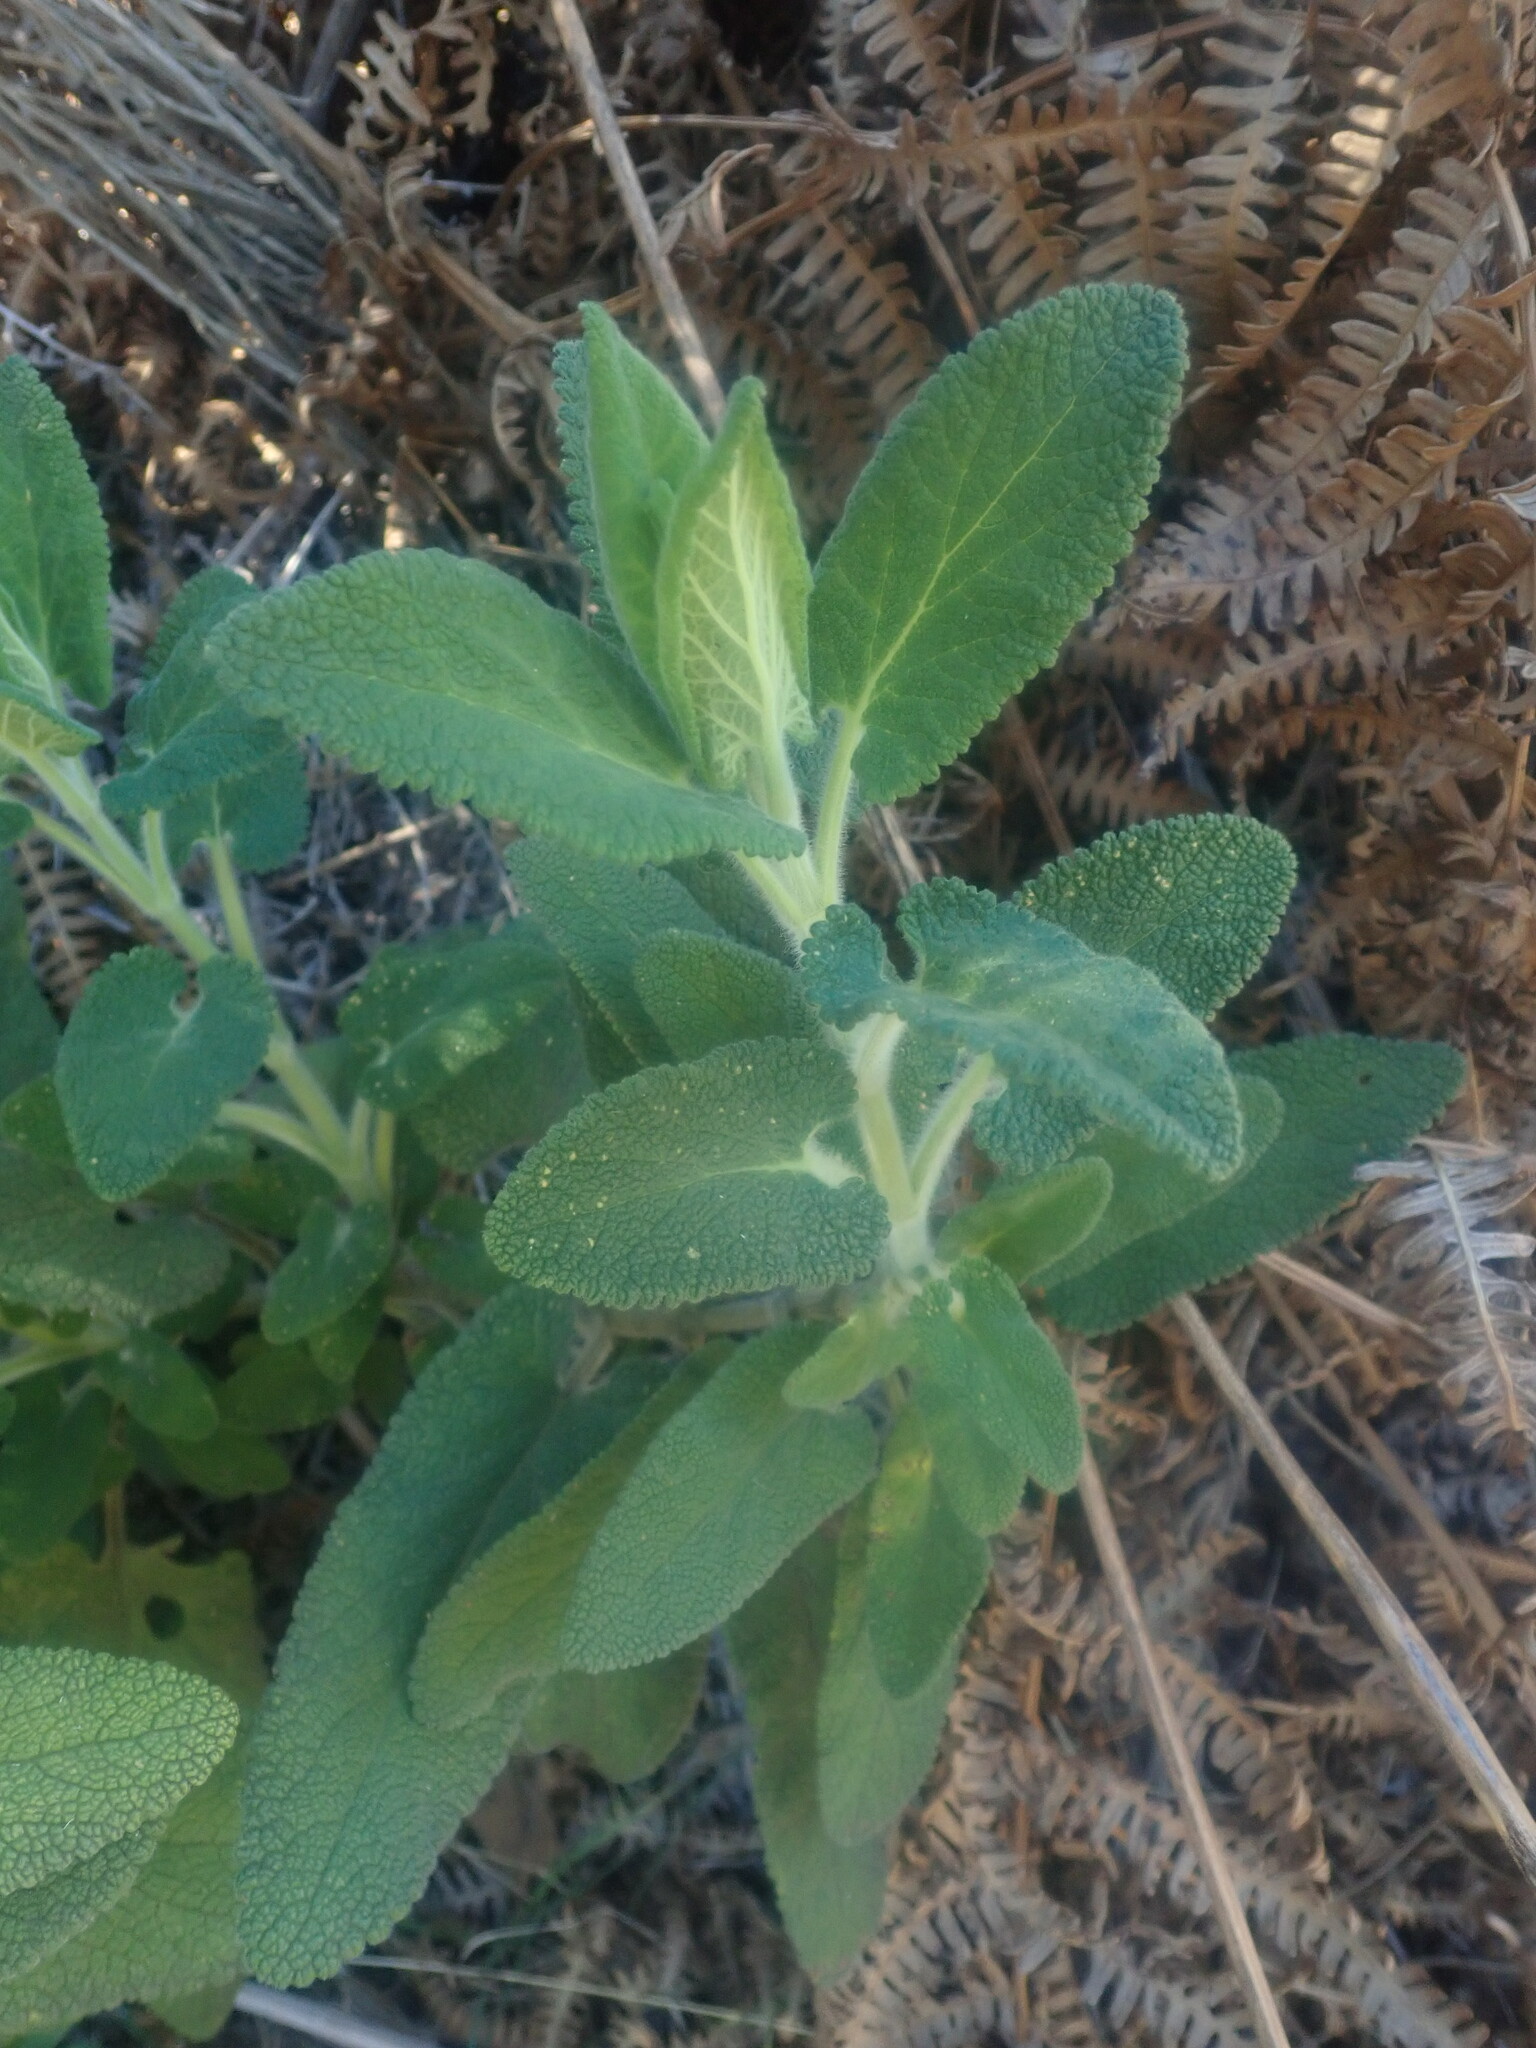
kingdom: Plantae
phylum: Tracheophyta
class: Magnoliopsida
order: Lamiales
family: Lamiaceae
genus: Teucrium
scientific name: Teucrium francoi
